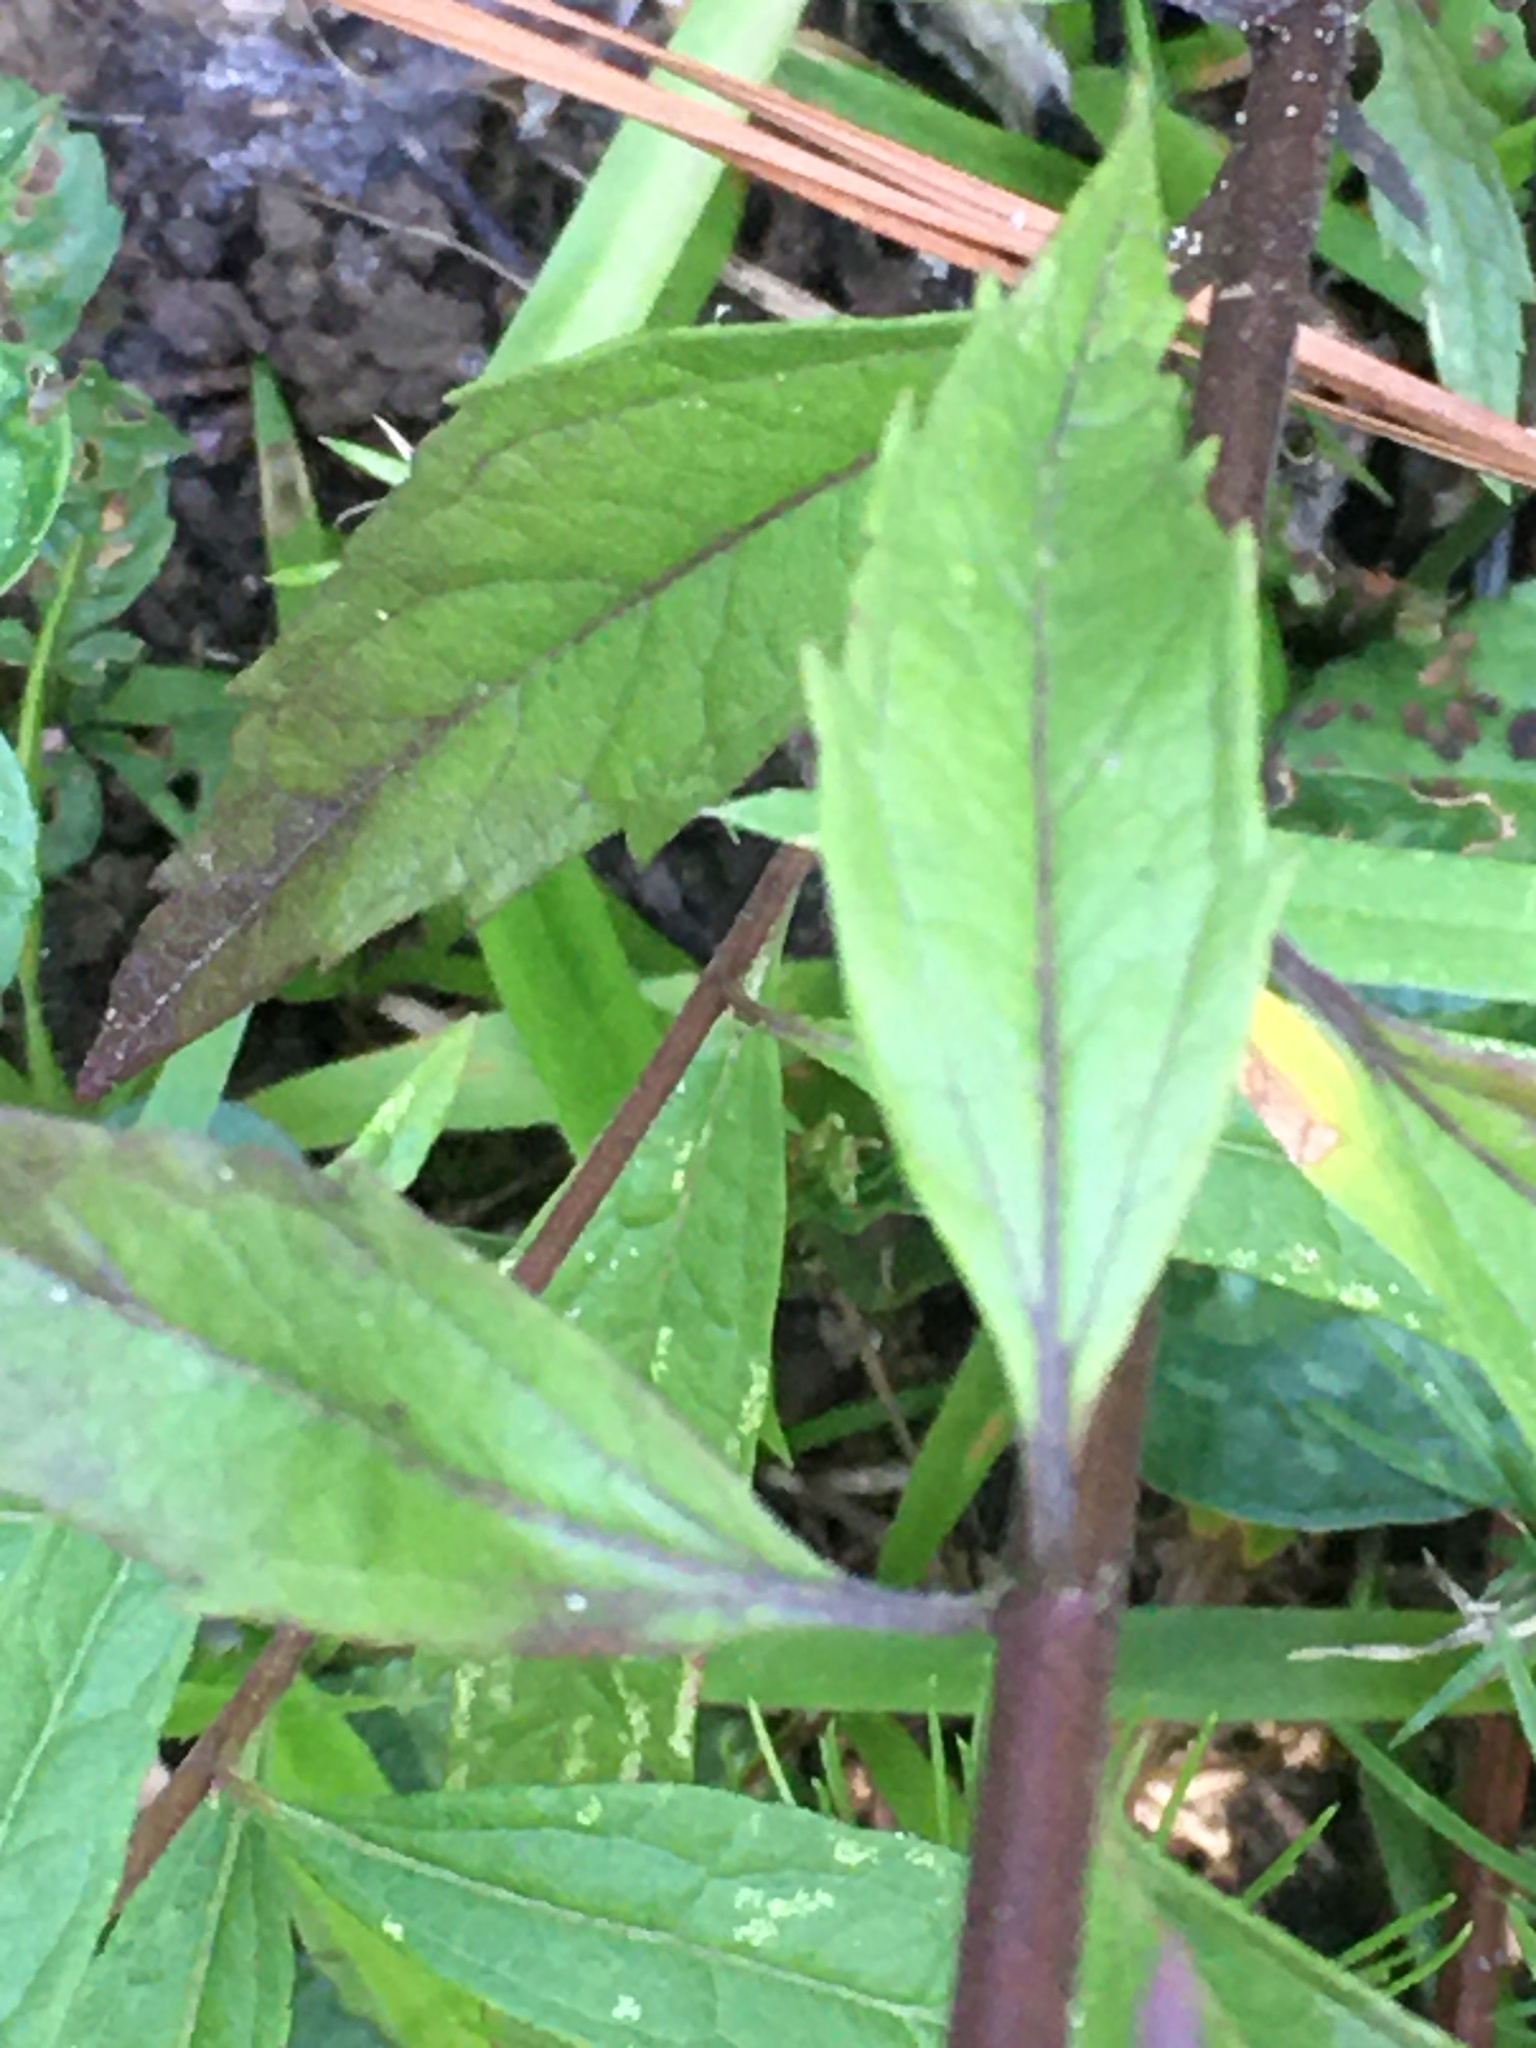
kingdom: Plantae
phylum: Tracheophyta
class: Magnoliopsida
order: Asterales
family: Asteraceae
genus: Brickellia
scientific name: Brickellia eupatorioides
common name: False boneset
